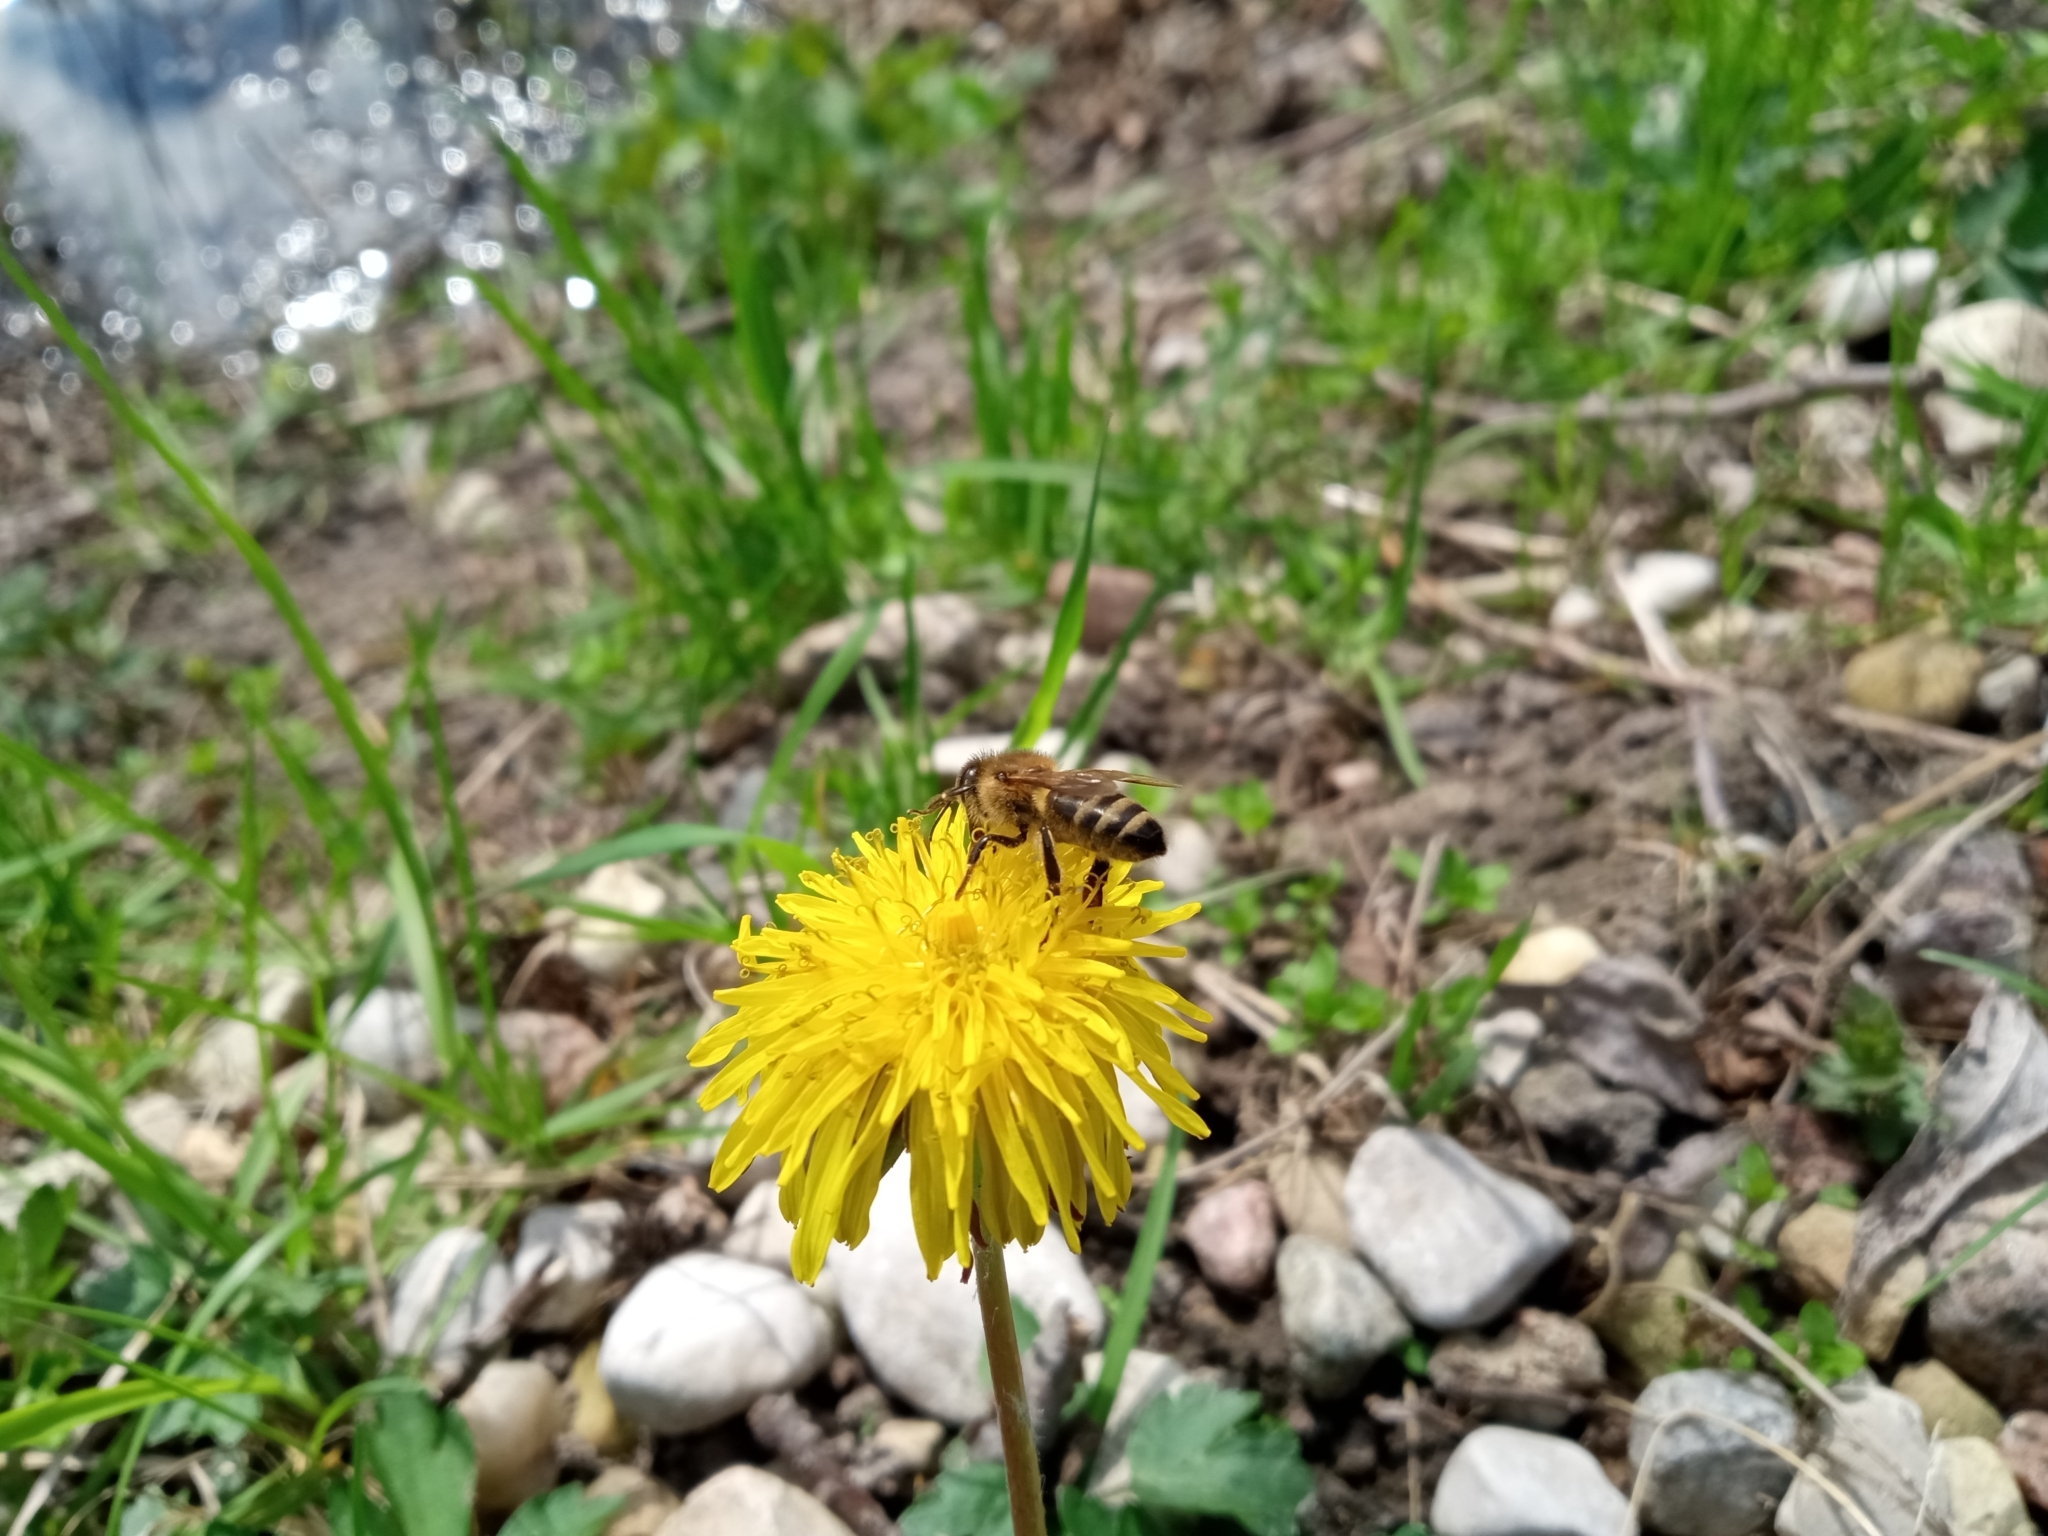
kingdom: Animalia
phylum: Arthropoda
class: Insecta
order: Hymenoptera
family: Apidae
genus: Apis
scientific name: Apis mellifera
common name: Honey bee
